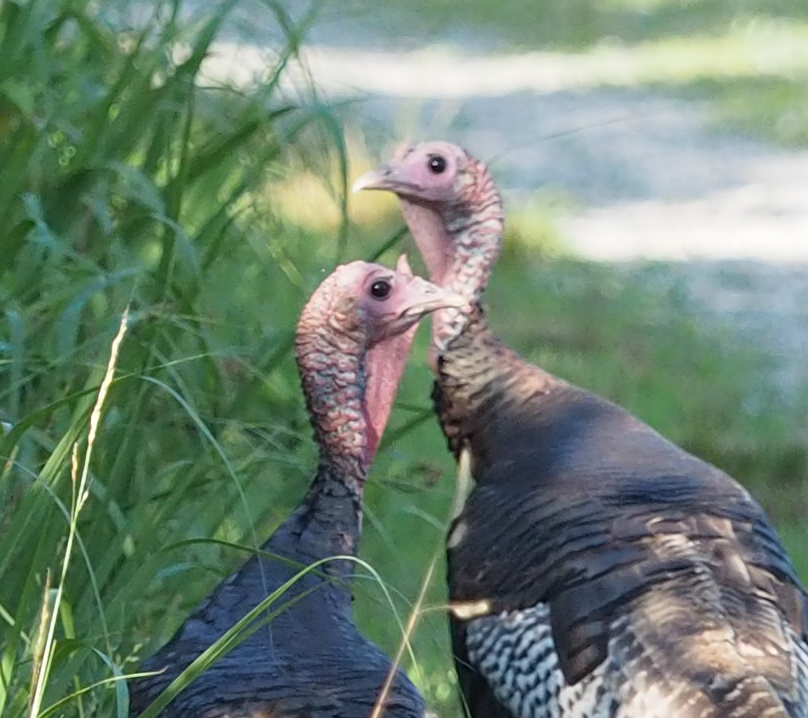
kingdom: Animalia
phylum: Chordata
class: Aves
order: Galliformes
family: Phasianidae
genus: Meleagris
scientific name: Meleagris gallopavo
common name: Wild turkey
